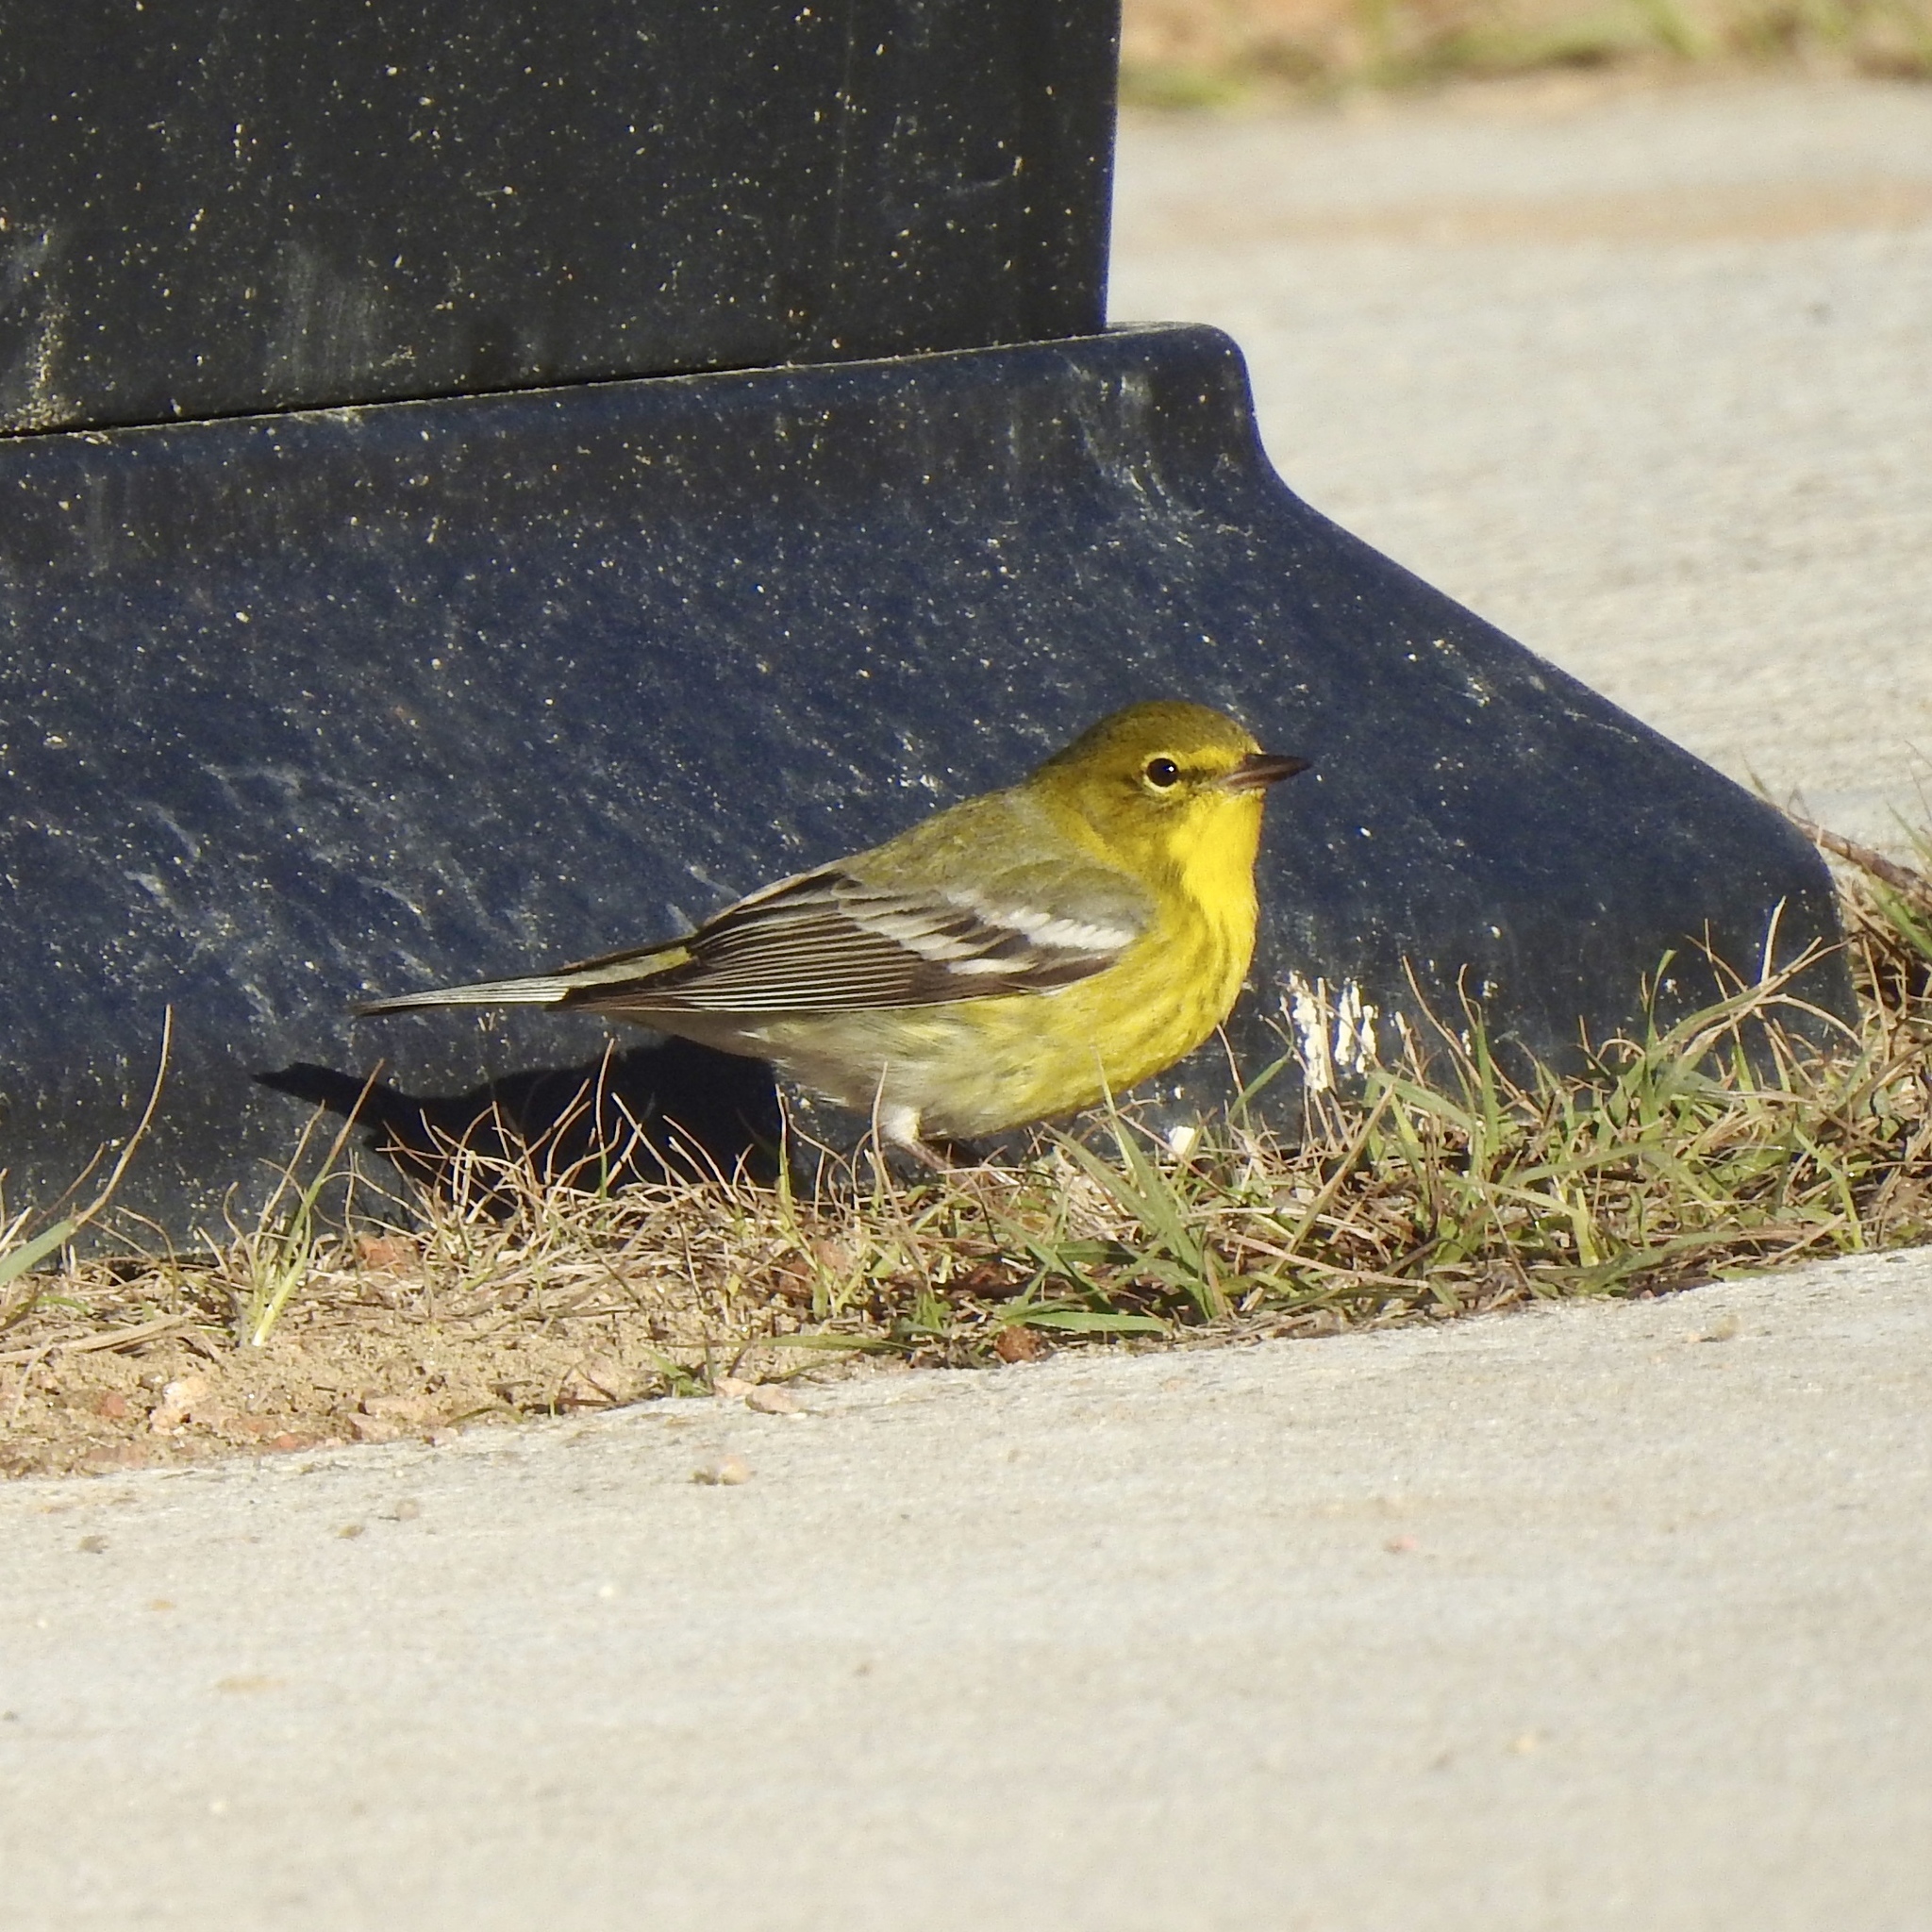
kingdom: Animalia
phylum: Chordata
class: Aves
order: Passeriformes
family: Parulidae
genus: Setophaga
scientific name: Setophaga pinus
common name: Pine warbler
